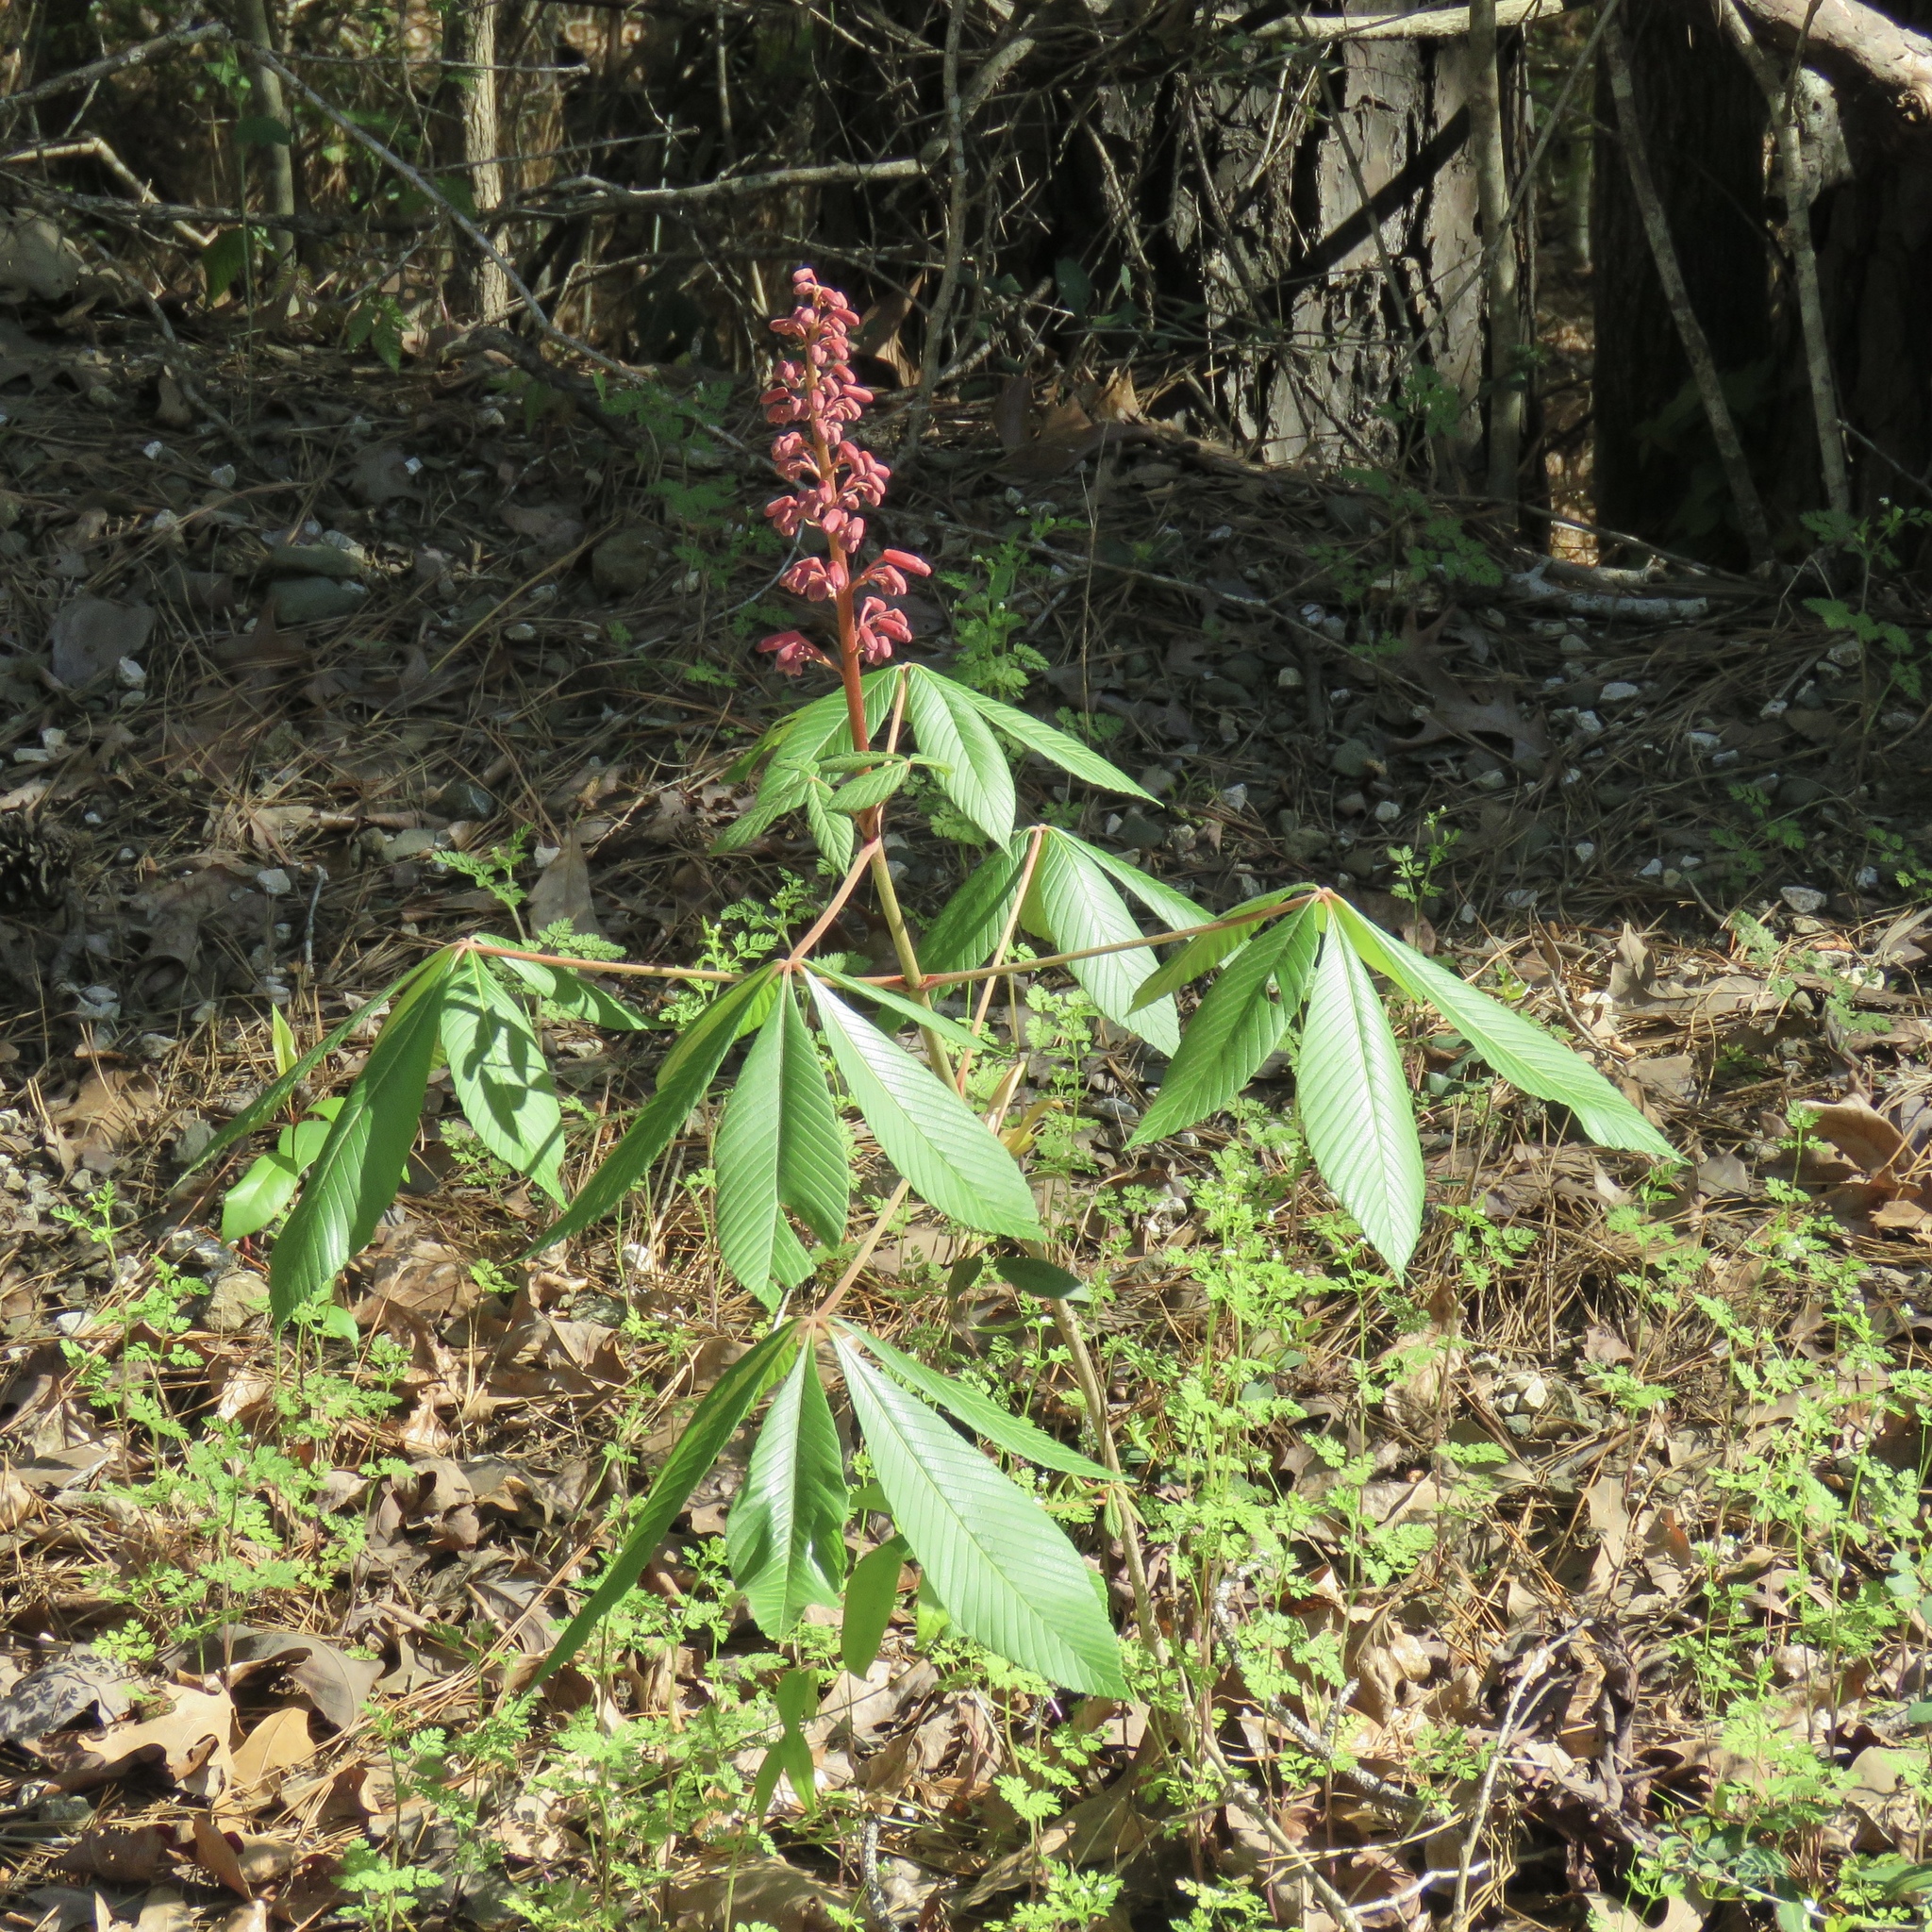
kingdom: Plantae
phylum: Tracheophyta
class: Magnoliopsida
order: Sapindales
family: Sapindaceae
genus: Aesculus
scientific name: Aesculus pavia
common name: Red buckeye
